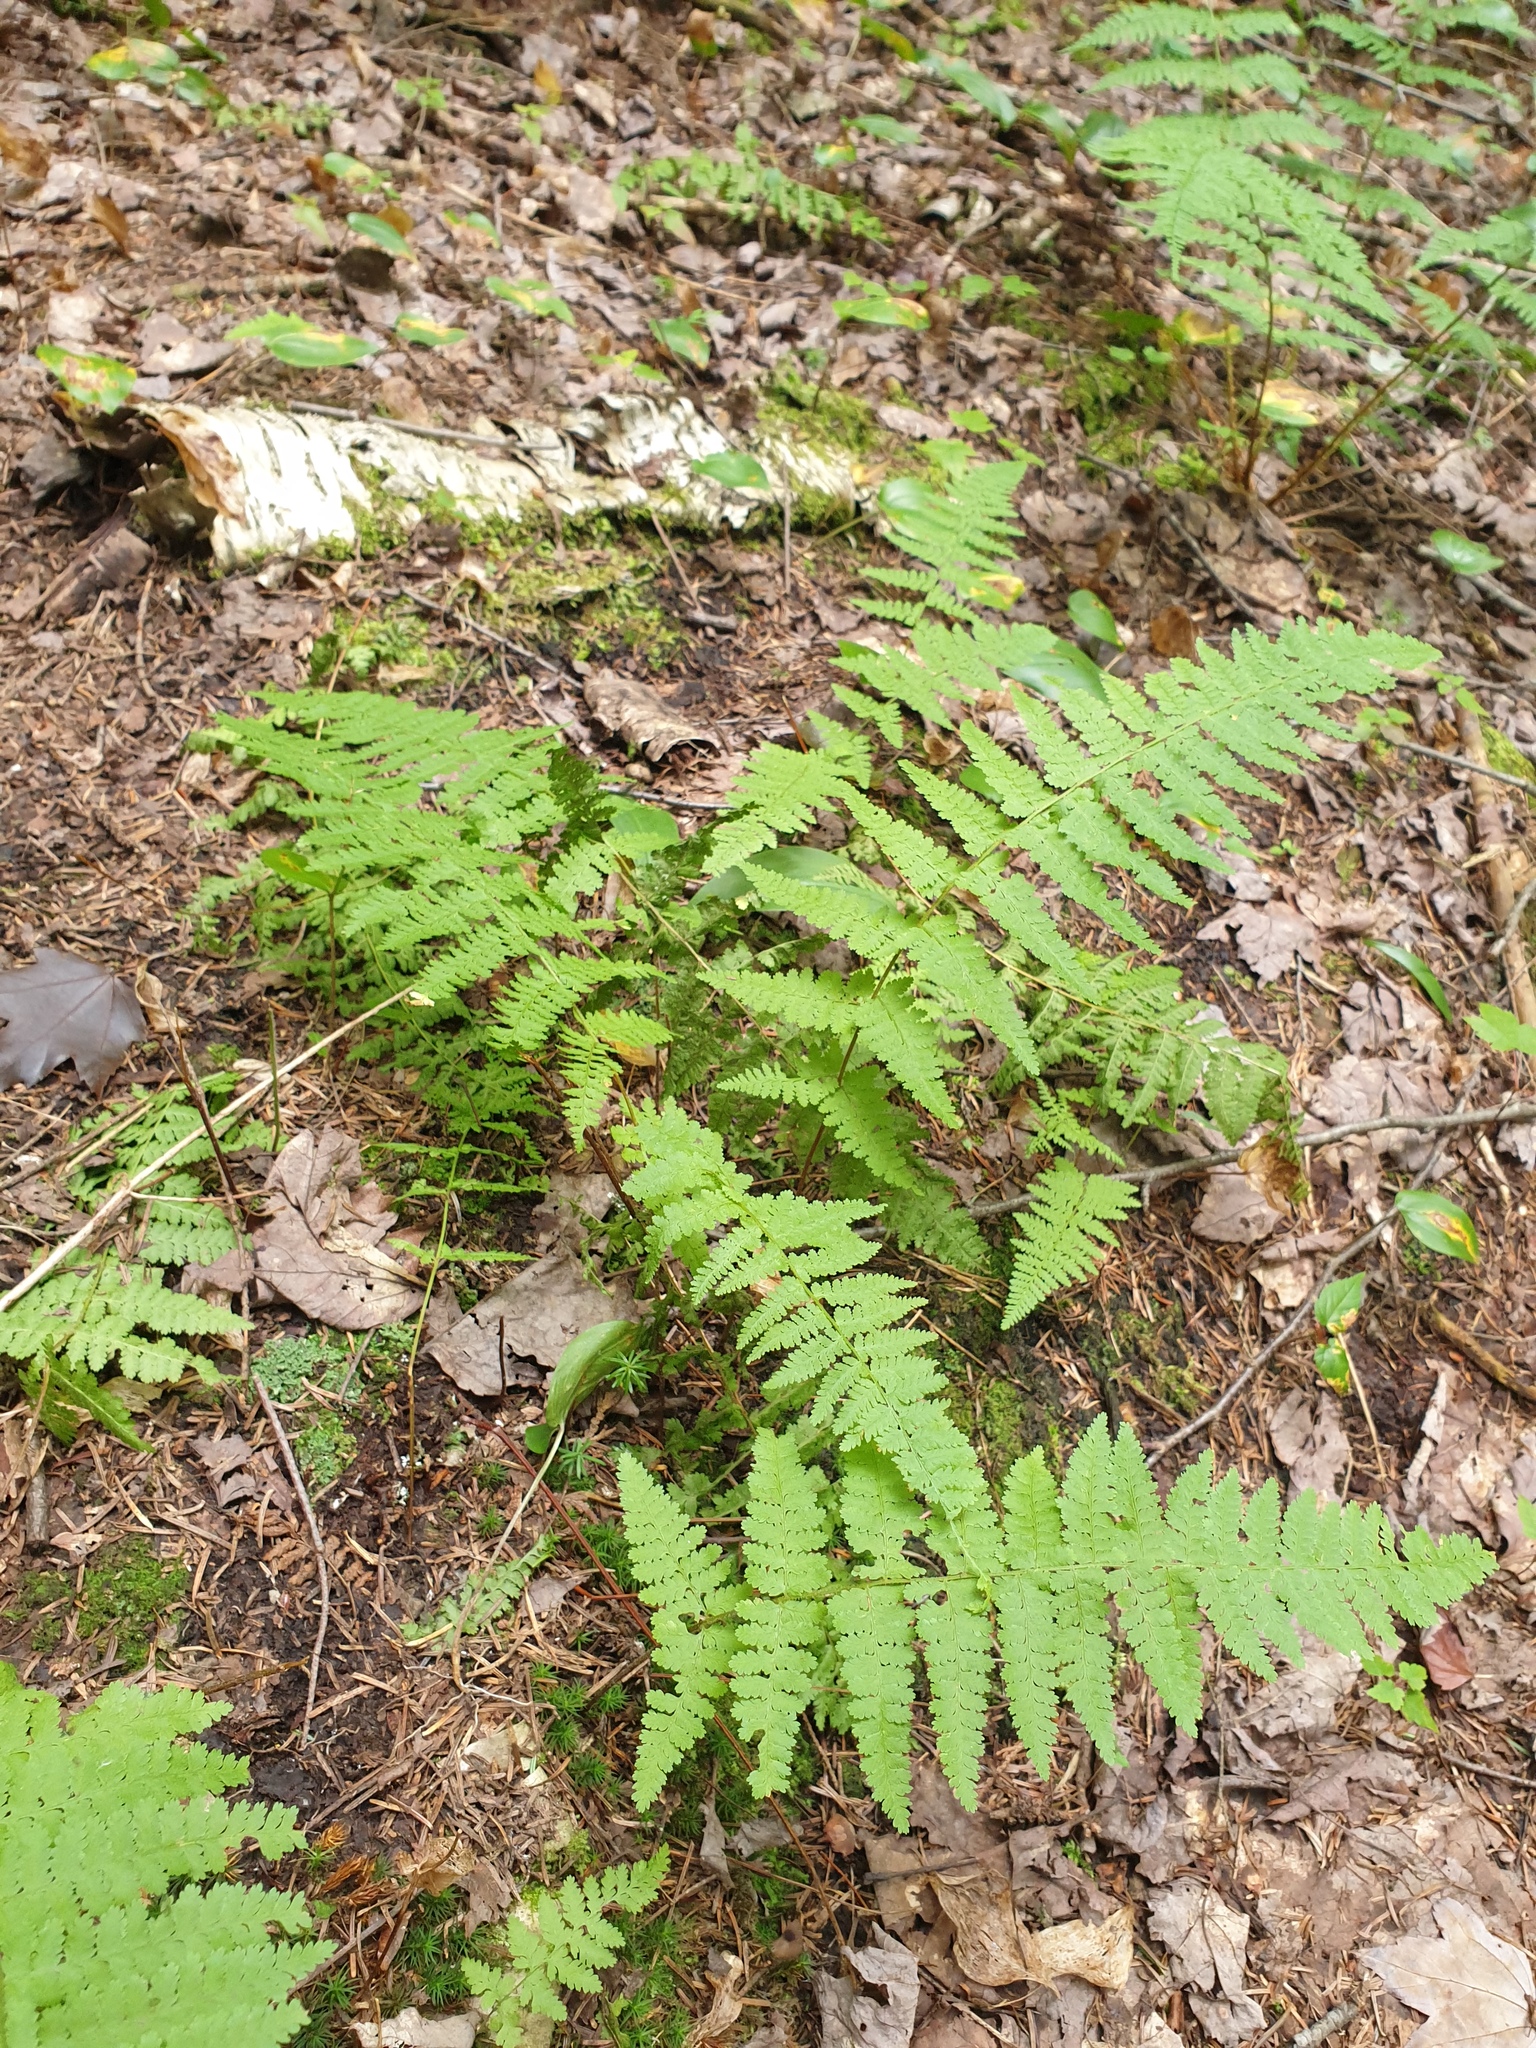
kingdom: Plantae
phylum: Tracheophyta
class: Polypodiopsida
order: Polypodiales
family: Dennstaedtiaceae
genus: Sitobolium
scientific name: Sitobolium punctilobum
